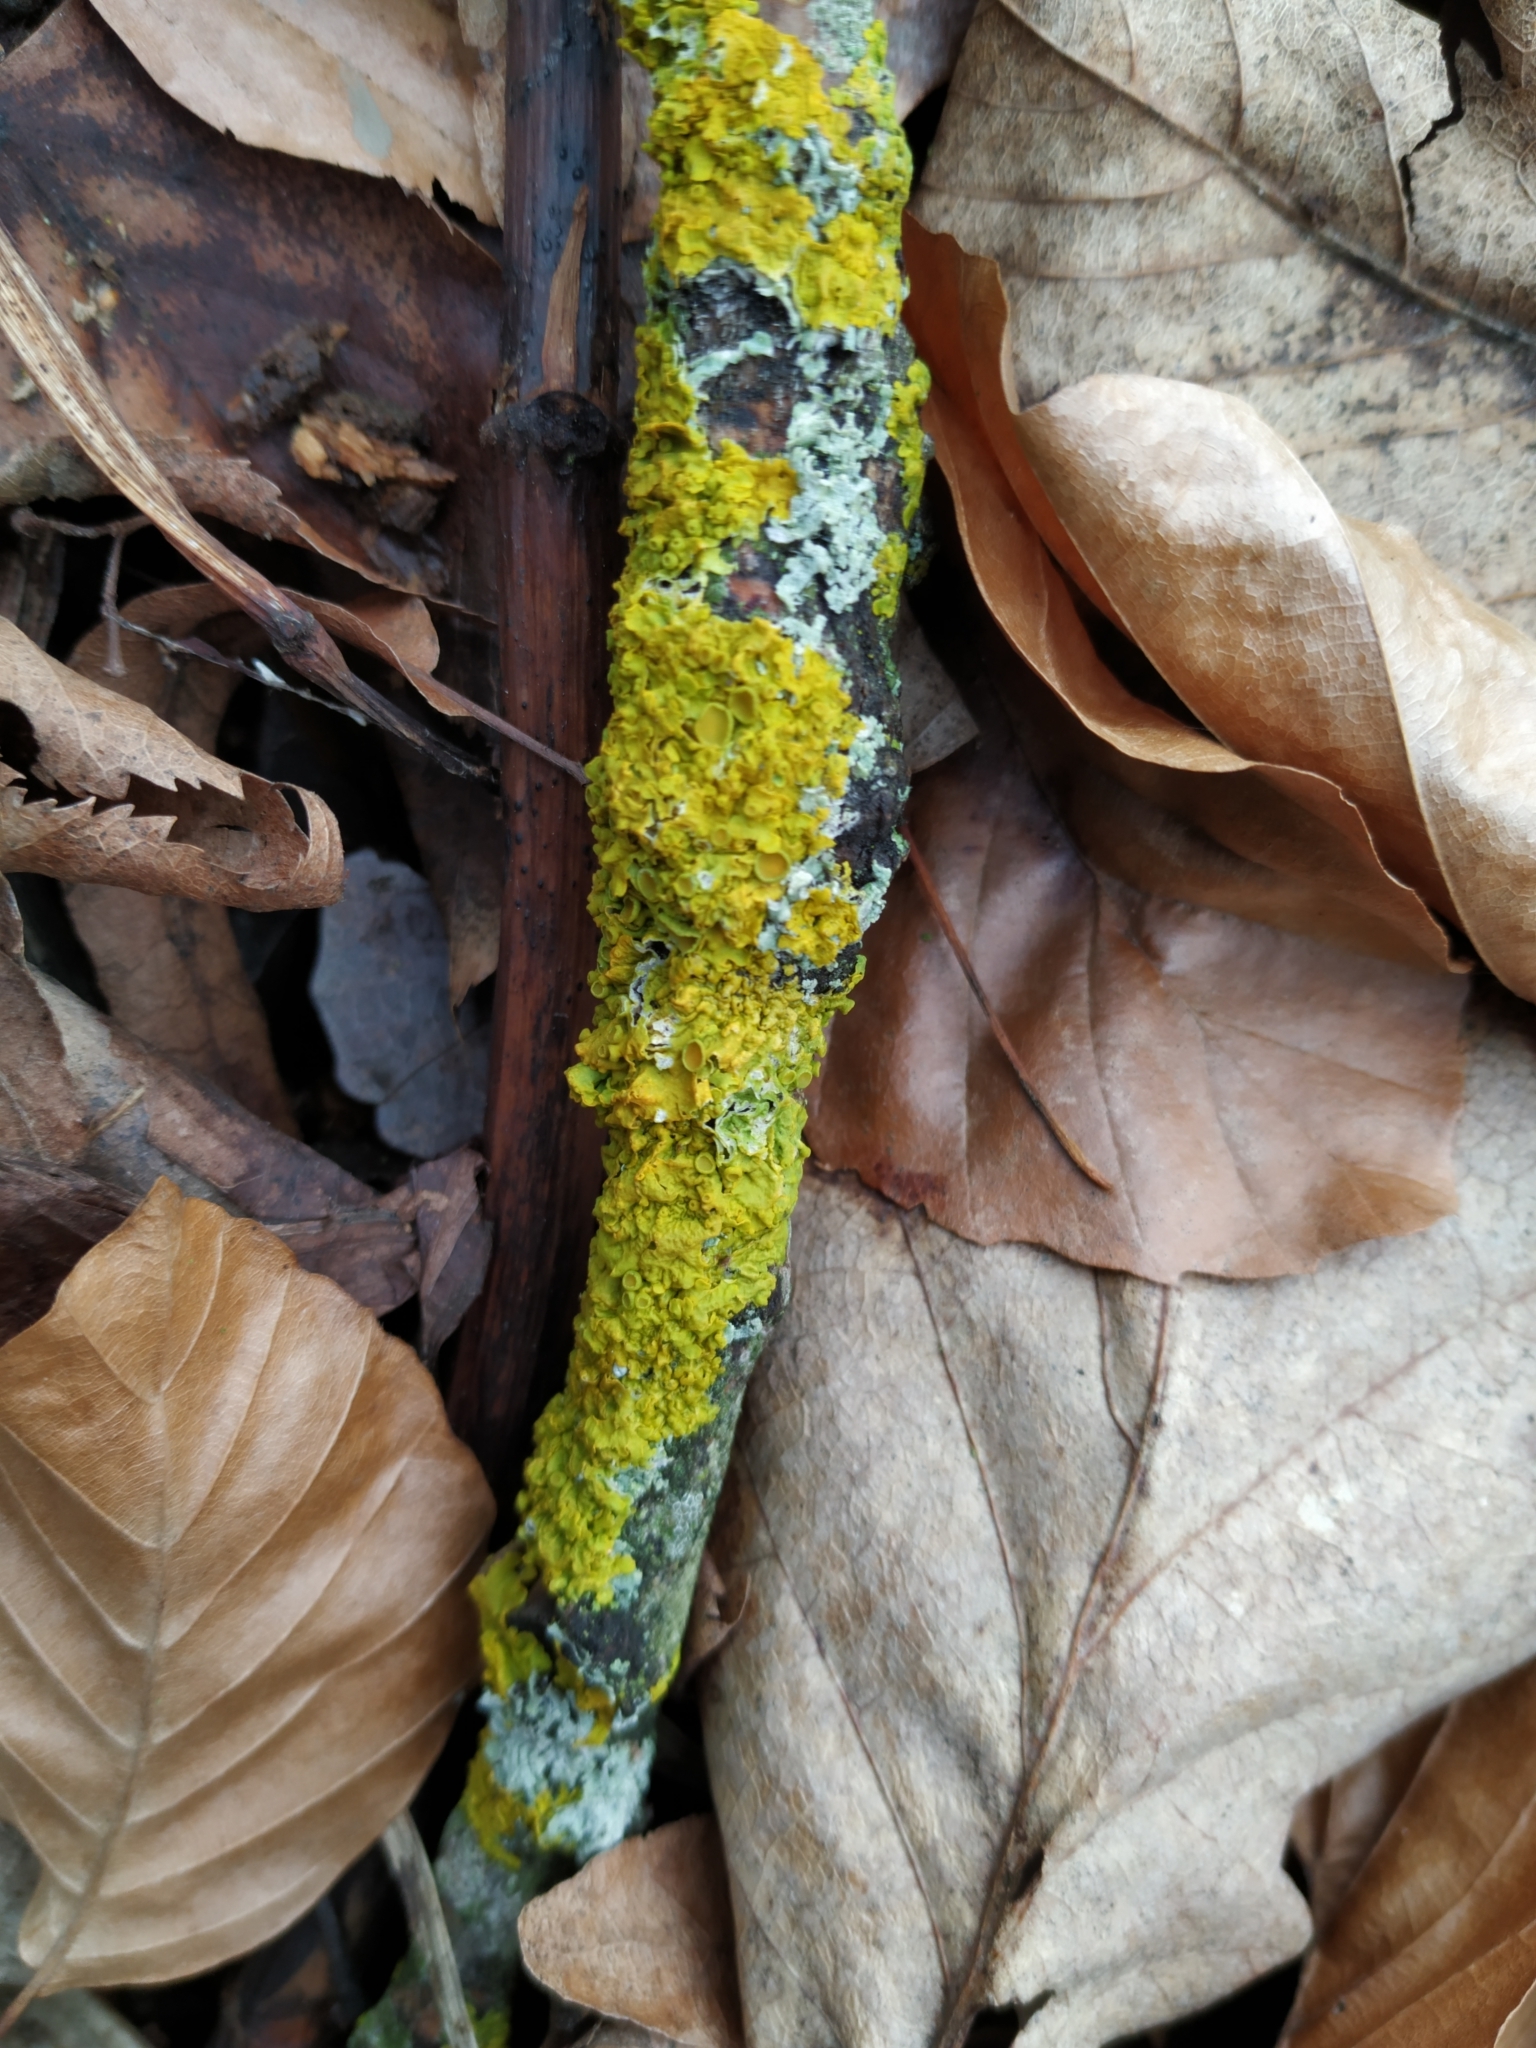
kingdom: Fungi
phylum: Ascomycota
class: Lecanoromycetes
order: Teloschistales
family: Teloschistaceae
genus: Xanthoria
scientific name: Xanthoria parietina
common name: Common orange lichen
